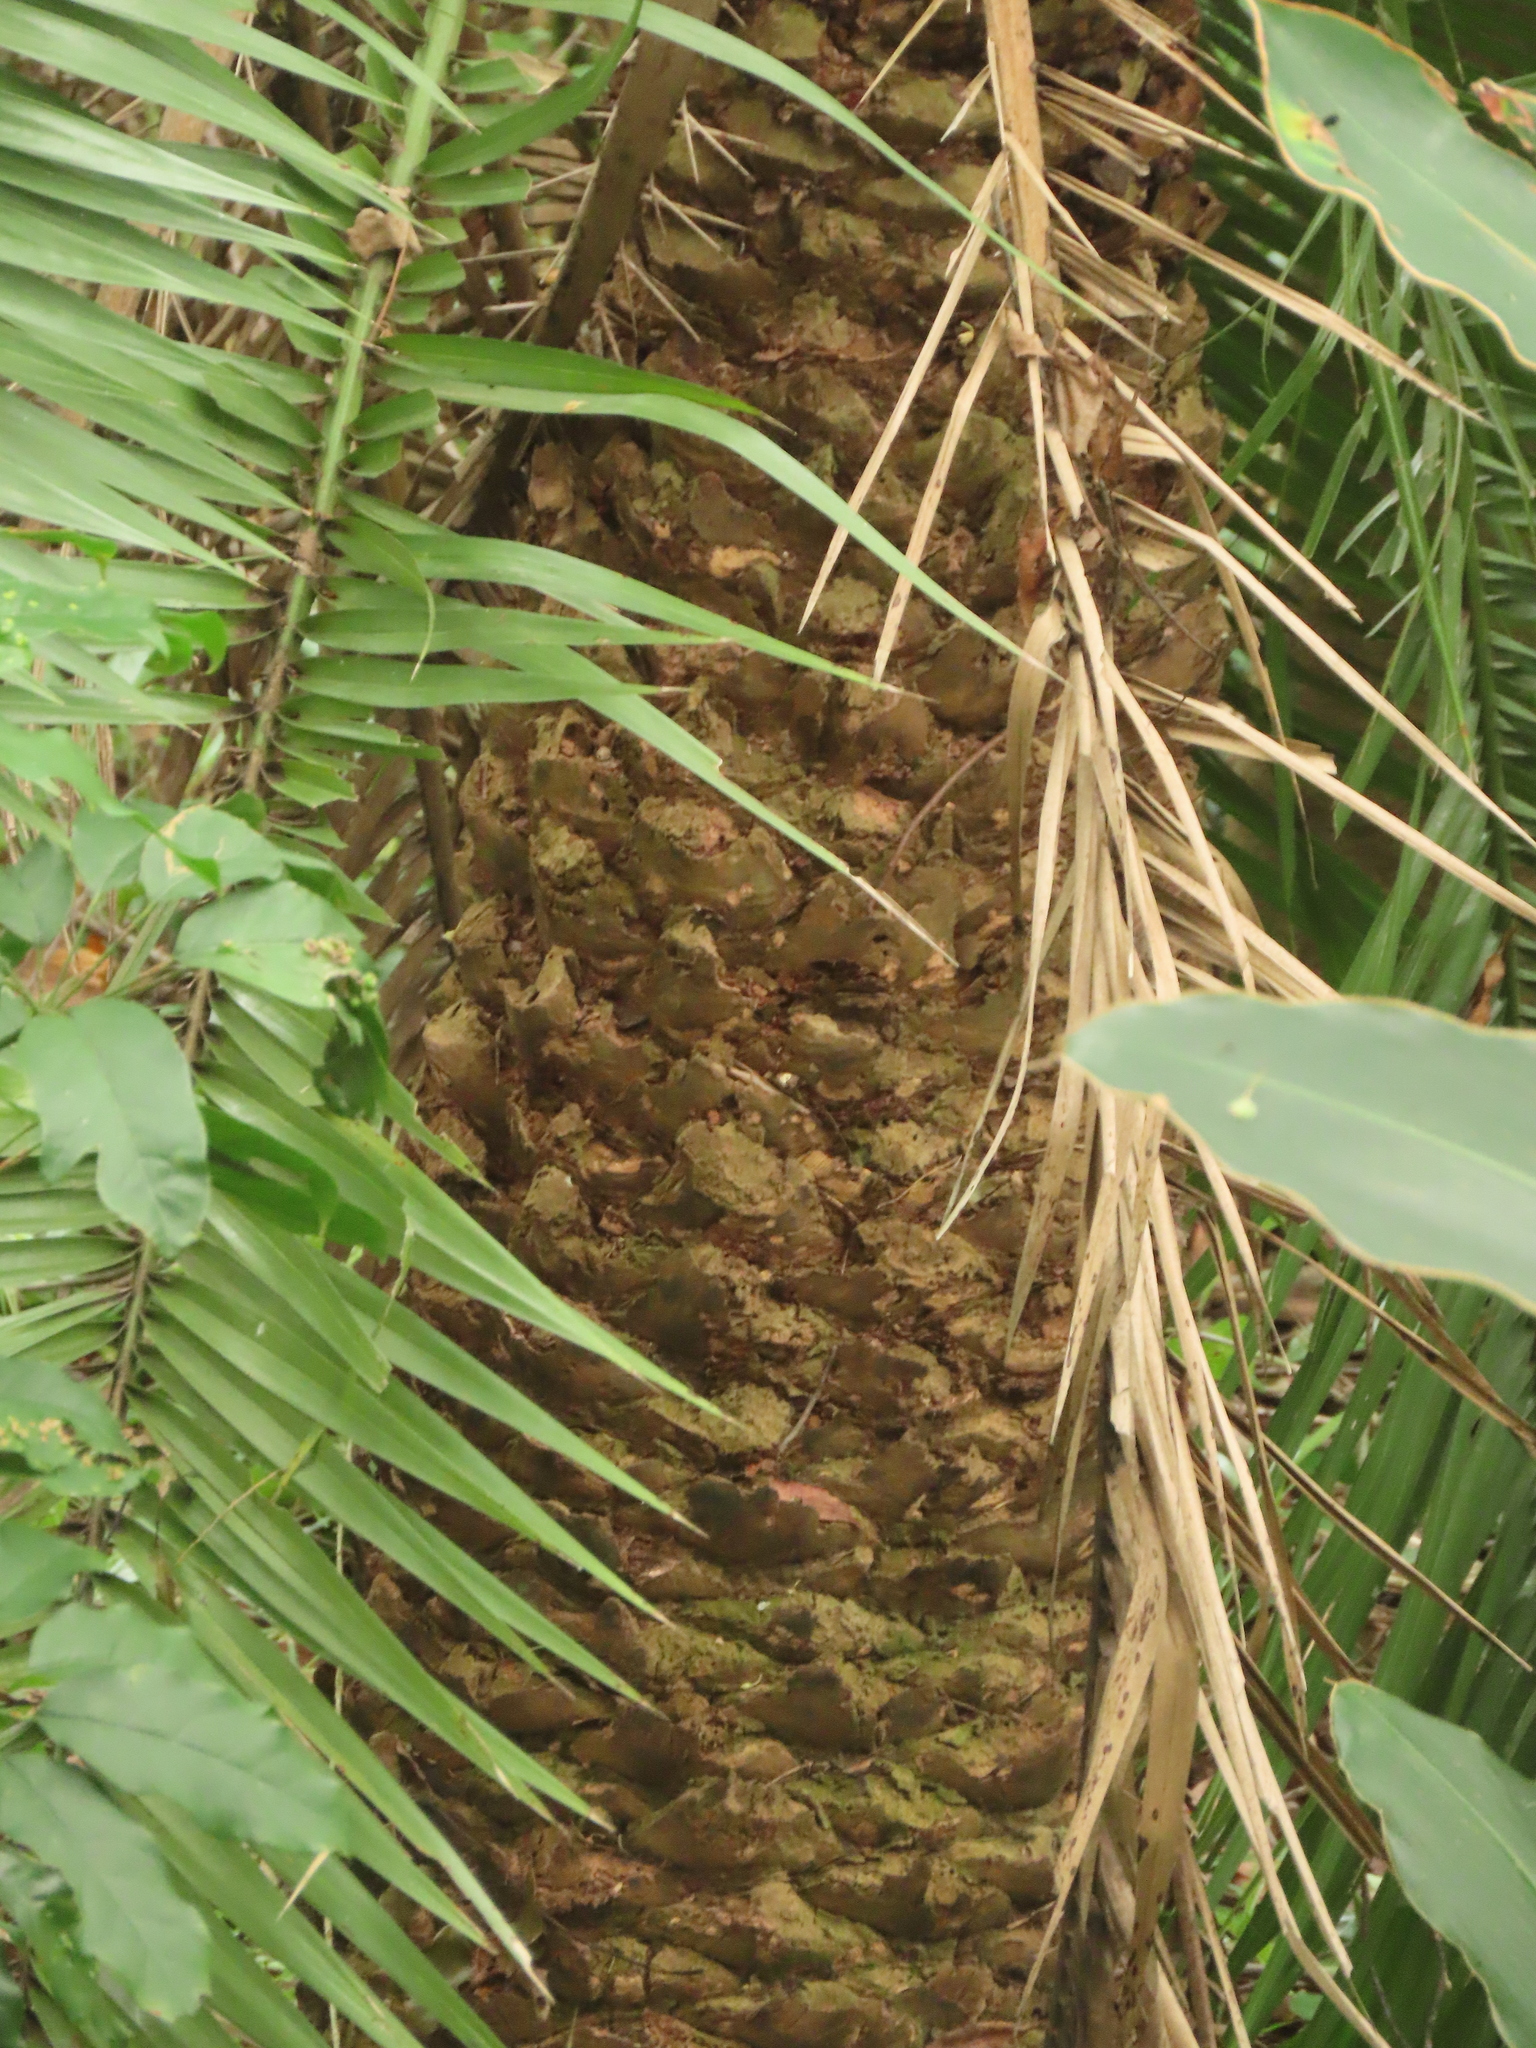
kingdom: Plantae
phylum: Tracheophyta
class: Liliopsida
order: Arecales
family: Arecaceae
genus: Phoenix
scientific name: Phoenix loureiroi
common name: Loureiro's palm
